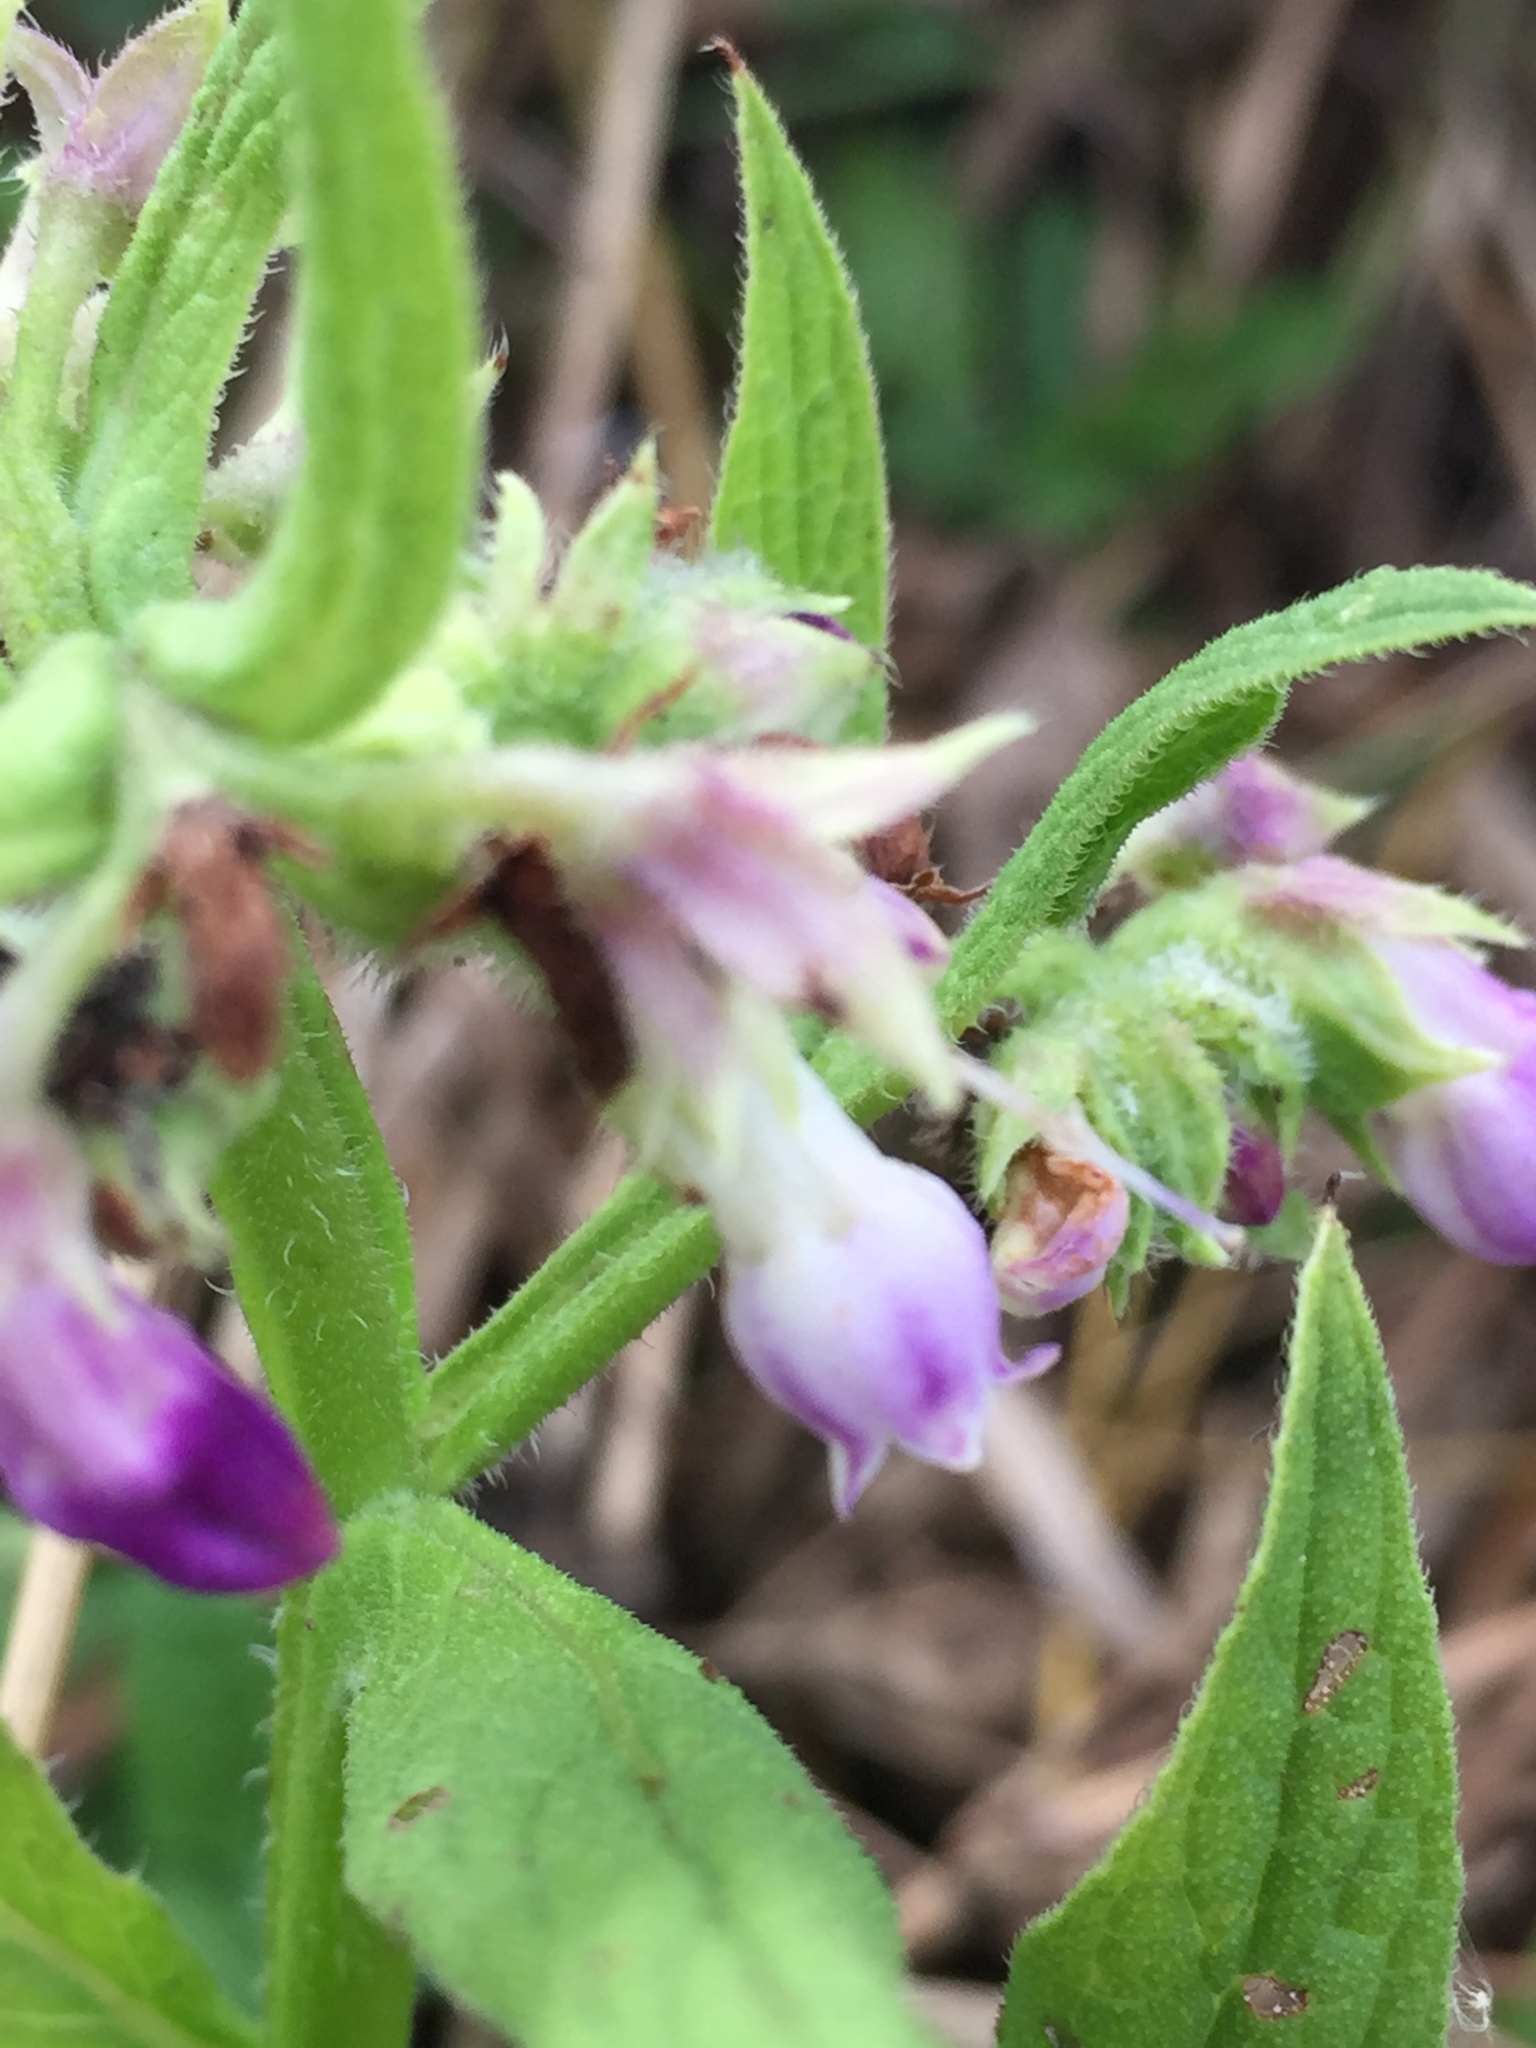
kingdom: Plantae
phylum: Tracheophyta
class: Magnoliopsida
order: Boraginales
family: Boraginaceae
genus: Symphytum
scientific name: Symphytum officinale
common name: Common comfrey
